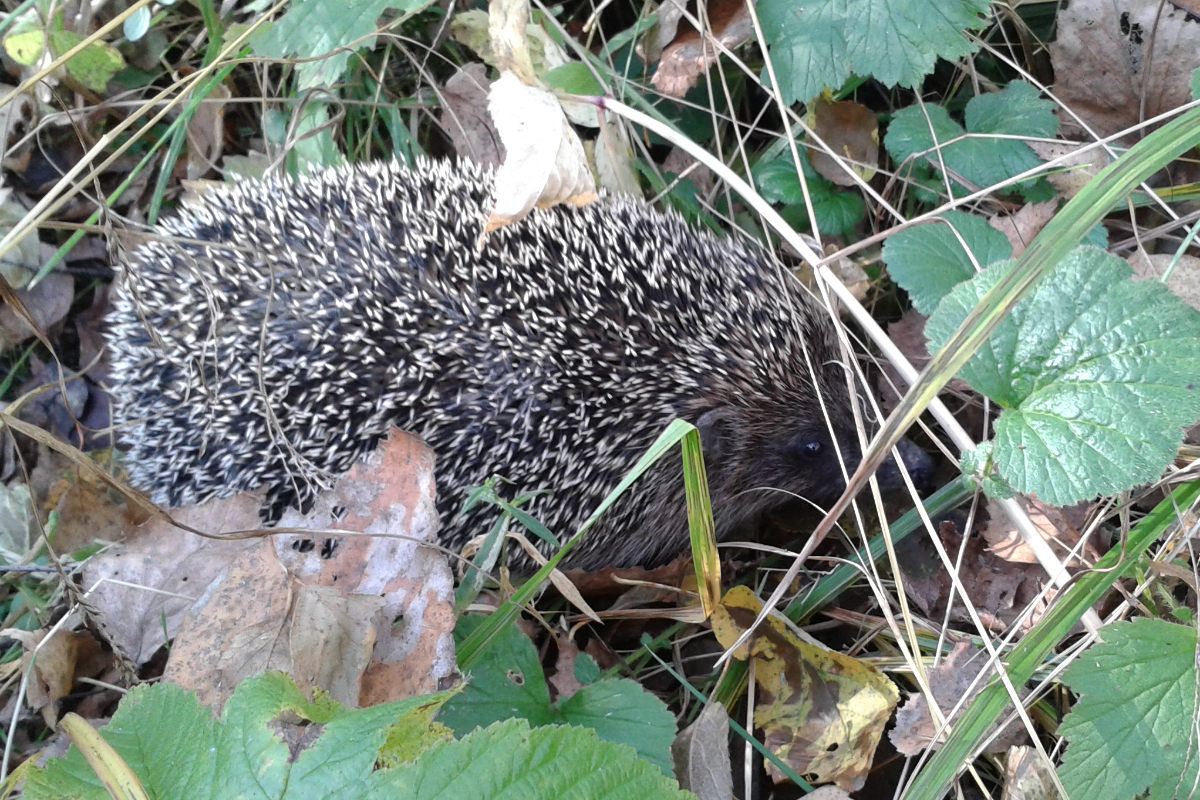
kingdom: Animalia
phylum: Chordata
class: Mammalia
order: Erinaceomorpha
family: Erinaceidae
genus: Erinaceus
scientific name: Erinaceus roumanicus
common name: Northern white-breasted hedgehog
